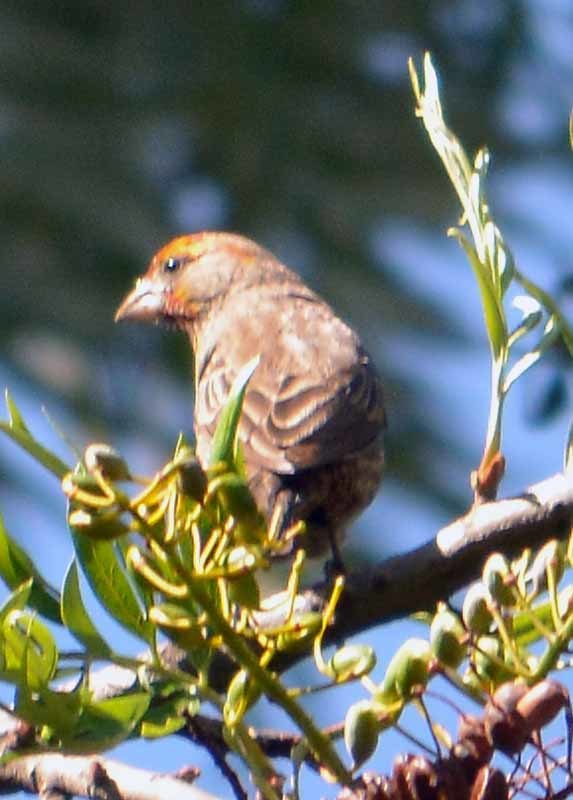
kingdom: Animalia
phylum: Chordata
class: Aves
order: Passeriformes
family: Fringillidae
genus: Haemorhous
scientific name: Haemorhous mexicanus
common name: House finch
